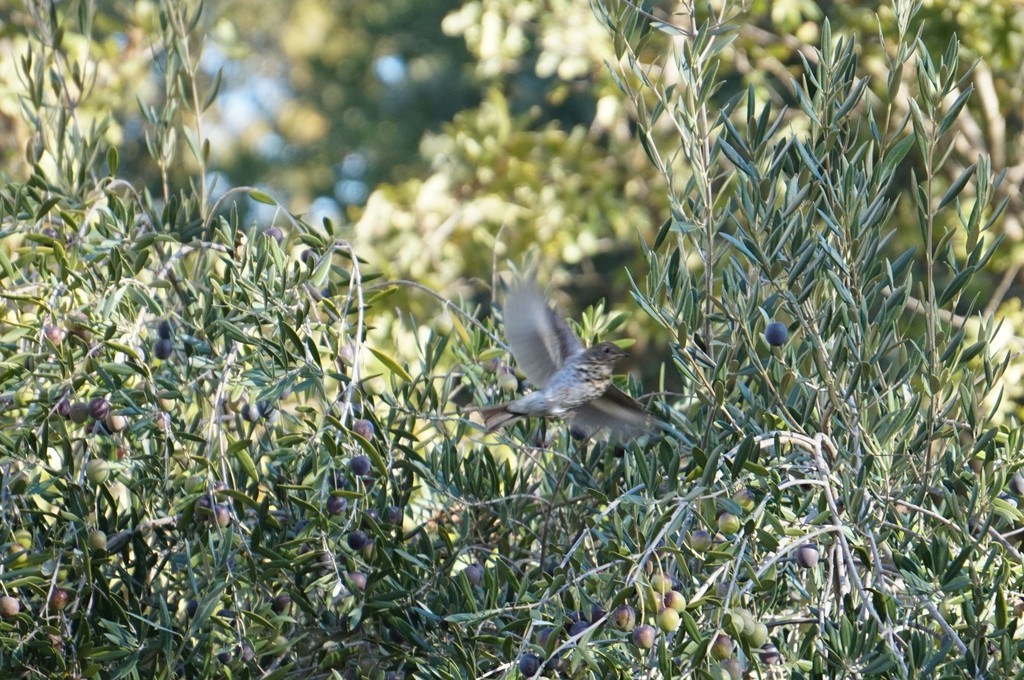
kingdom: Animalia
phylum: Chordata
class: Aves
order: Passeriformes
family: Turdidae
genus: Catharus
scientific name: Catharus guttatus
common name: Hermit thrush
